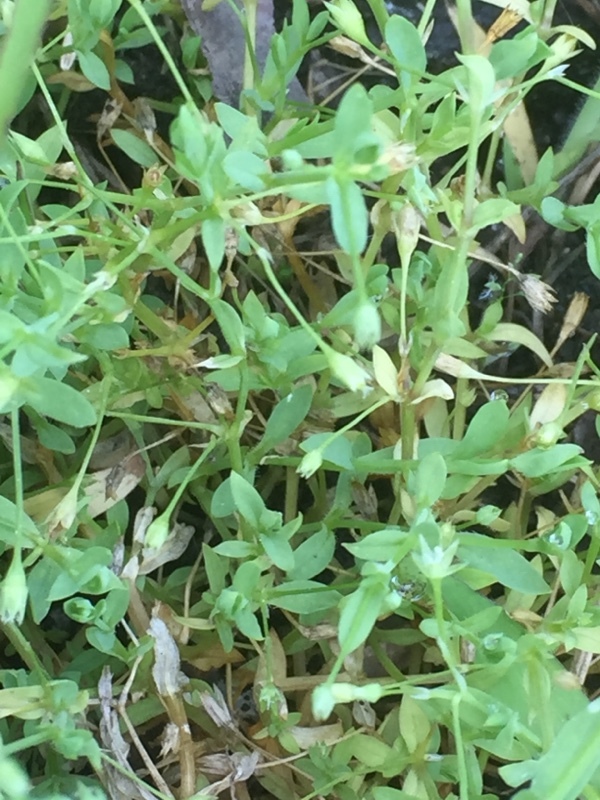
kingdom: Plantae
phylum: Tracheophyta
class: Magnoliopsida
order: Caryophyllales
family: Caryophyllaceae
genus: Stellaria
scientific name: Stellaria alsine
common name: Bog stitchwort
